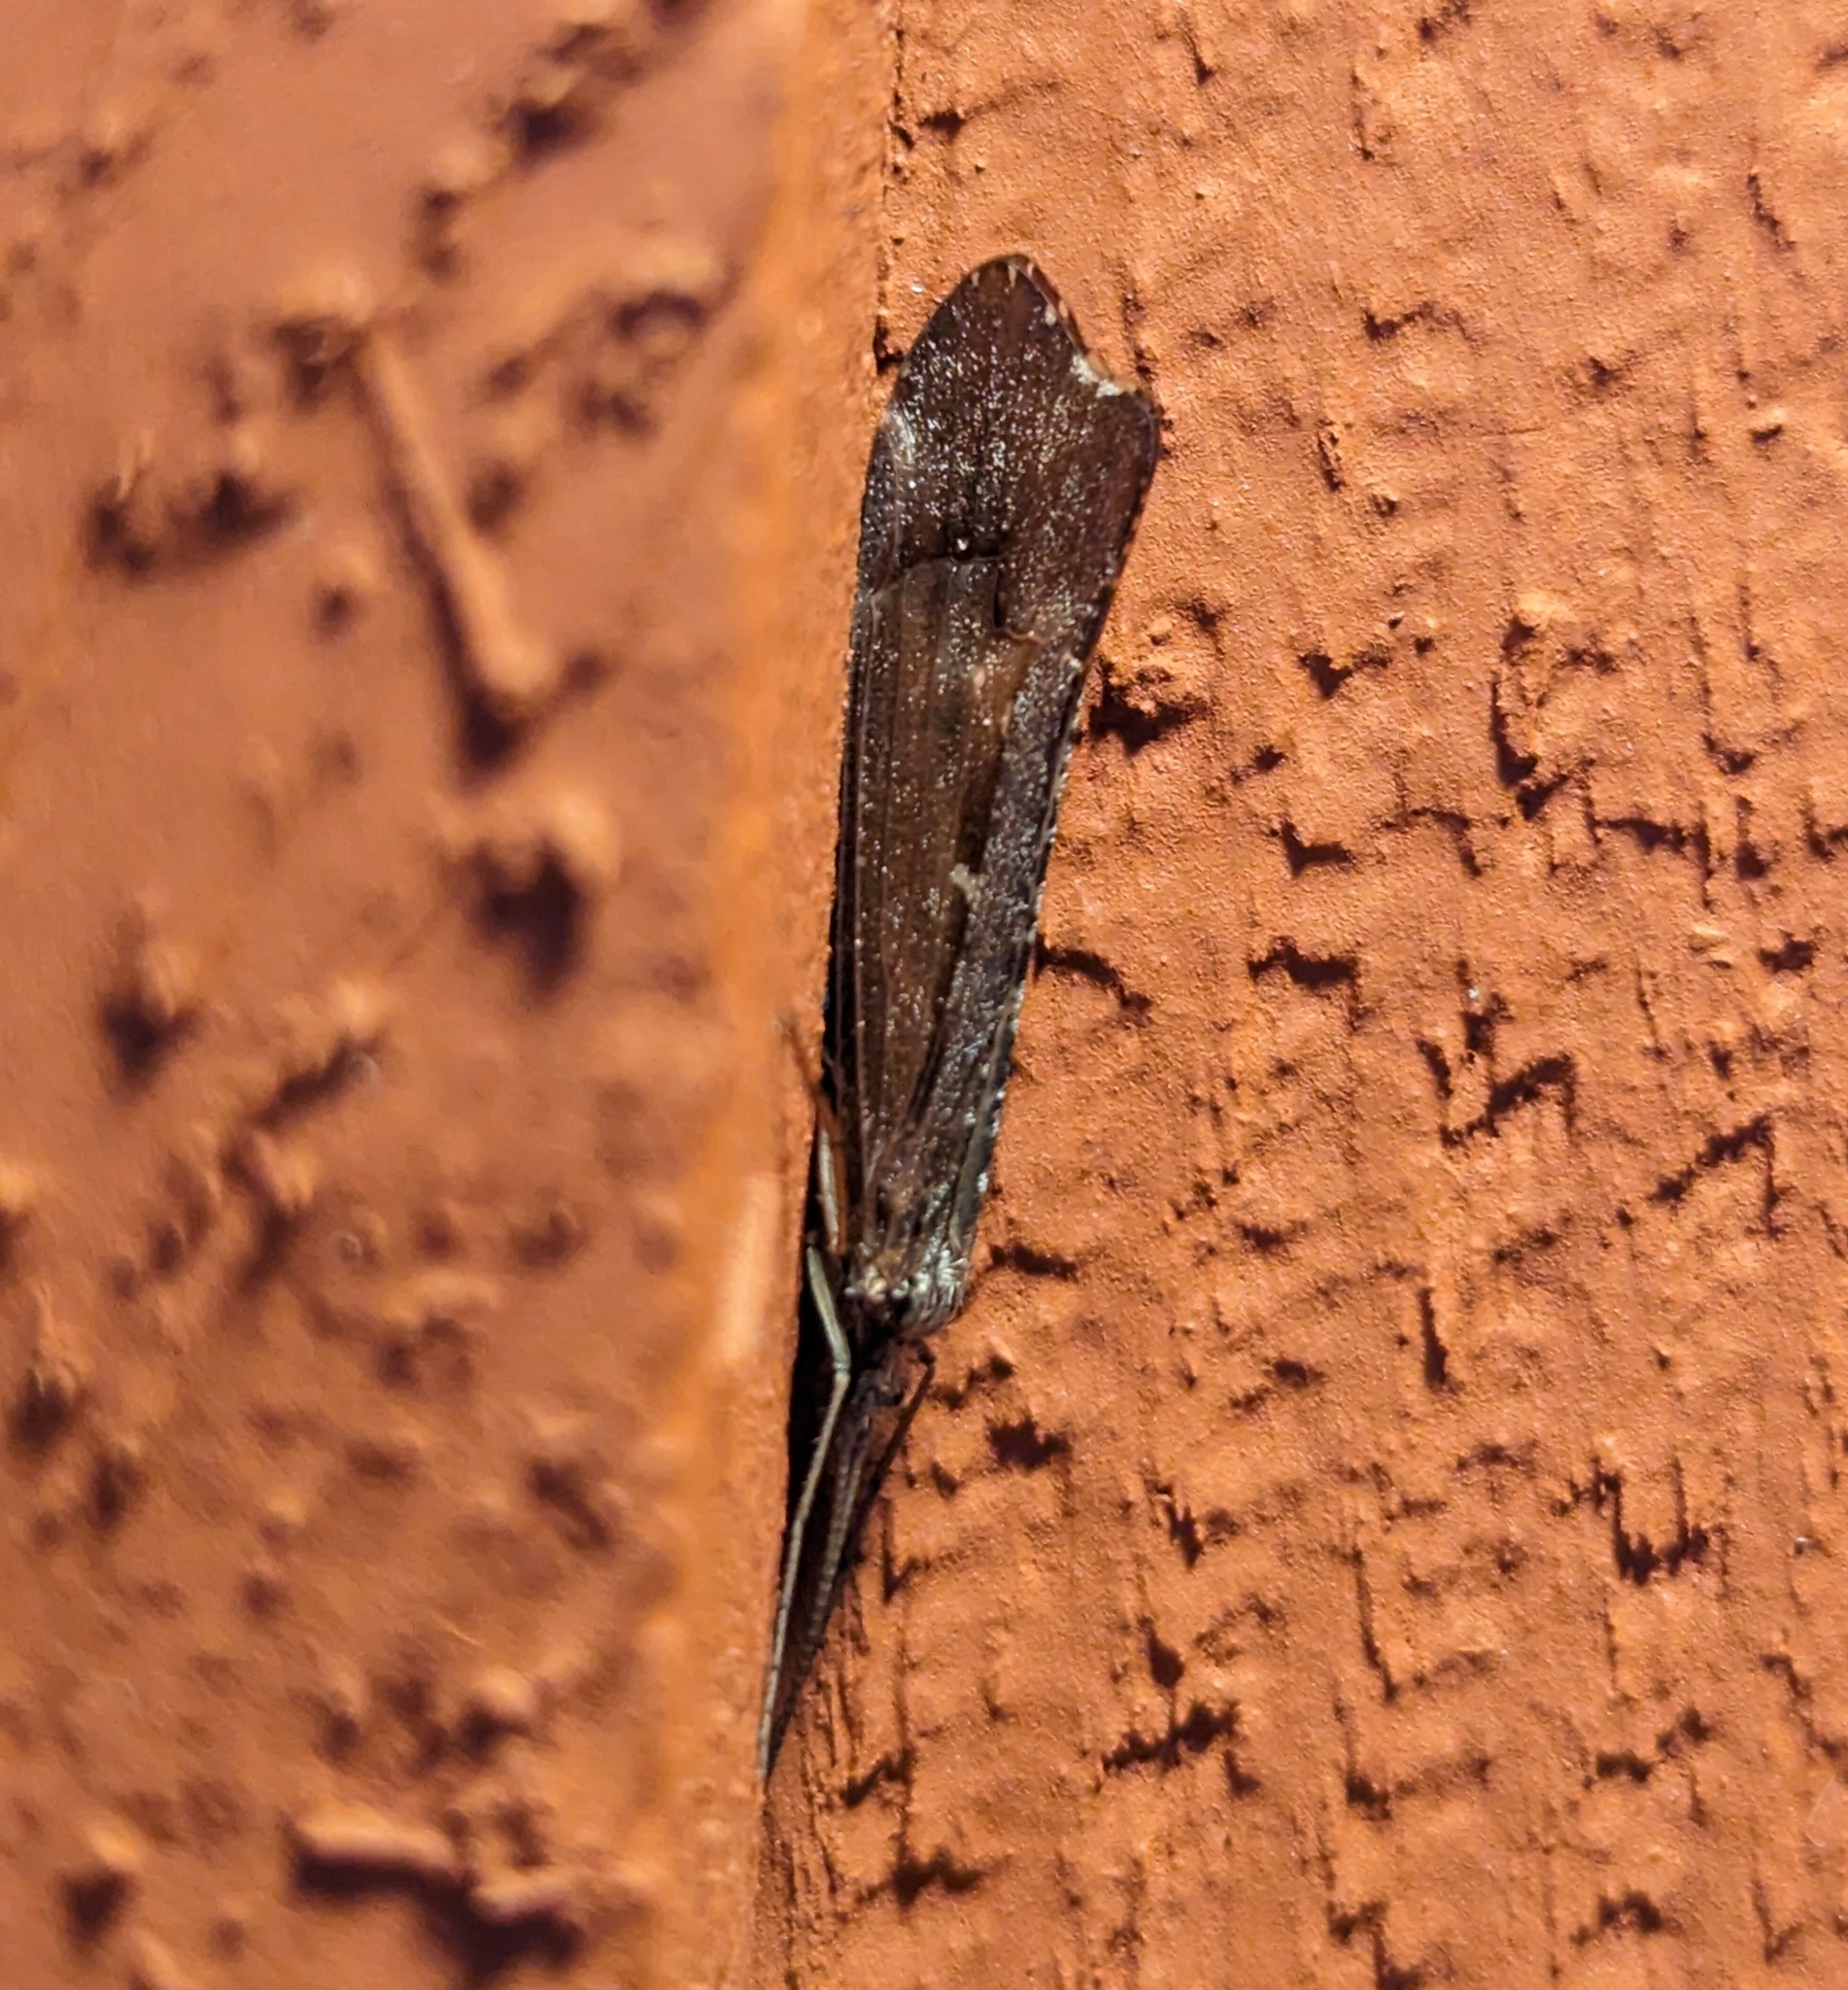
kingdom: Animalia
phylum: Arthropoda
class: Insecta
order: Trichoptera
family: Limnephilidae
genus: Glyphopsyche
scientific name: Glyphopsyche irrorata
